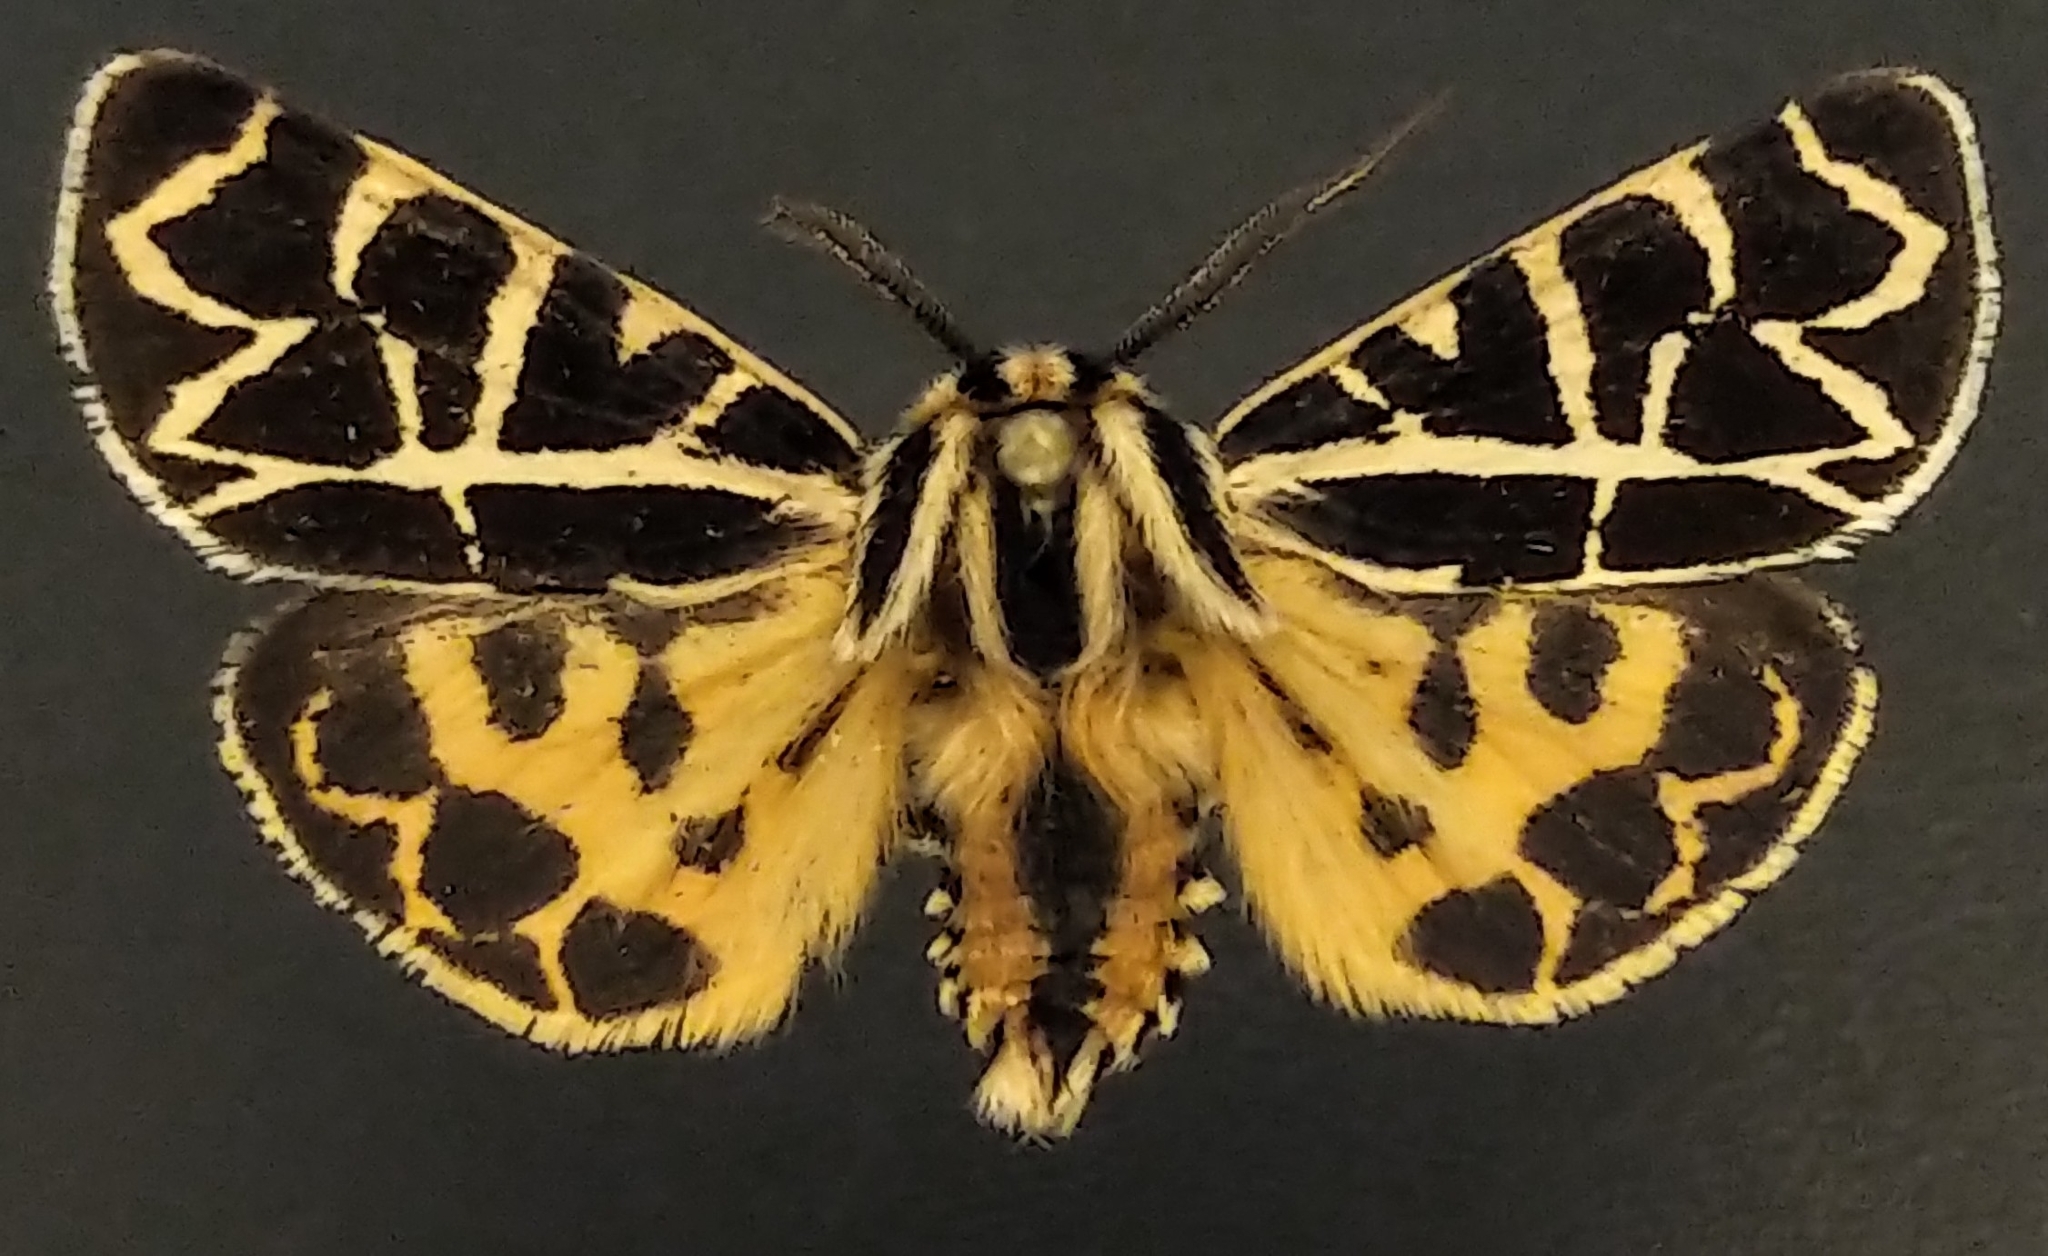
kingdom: Animalia
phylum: Arthropoda
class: Insecta
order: Lepidoptera
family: Erebidae
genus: Apantesis
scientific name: Apantesis
